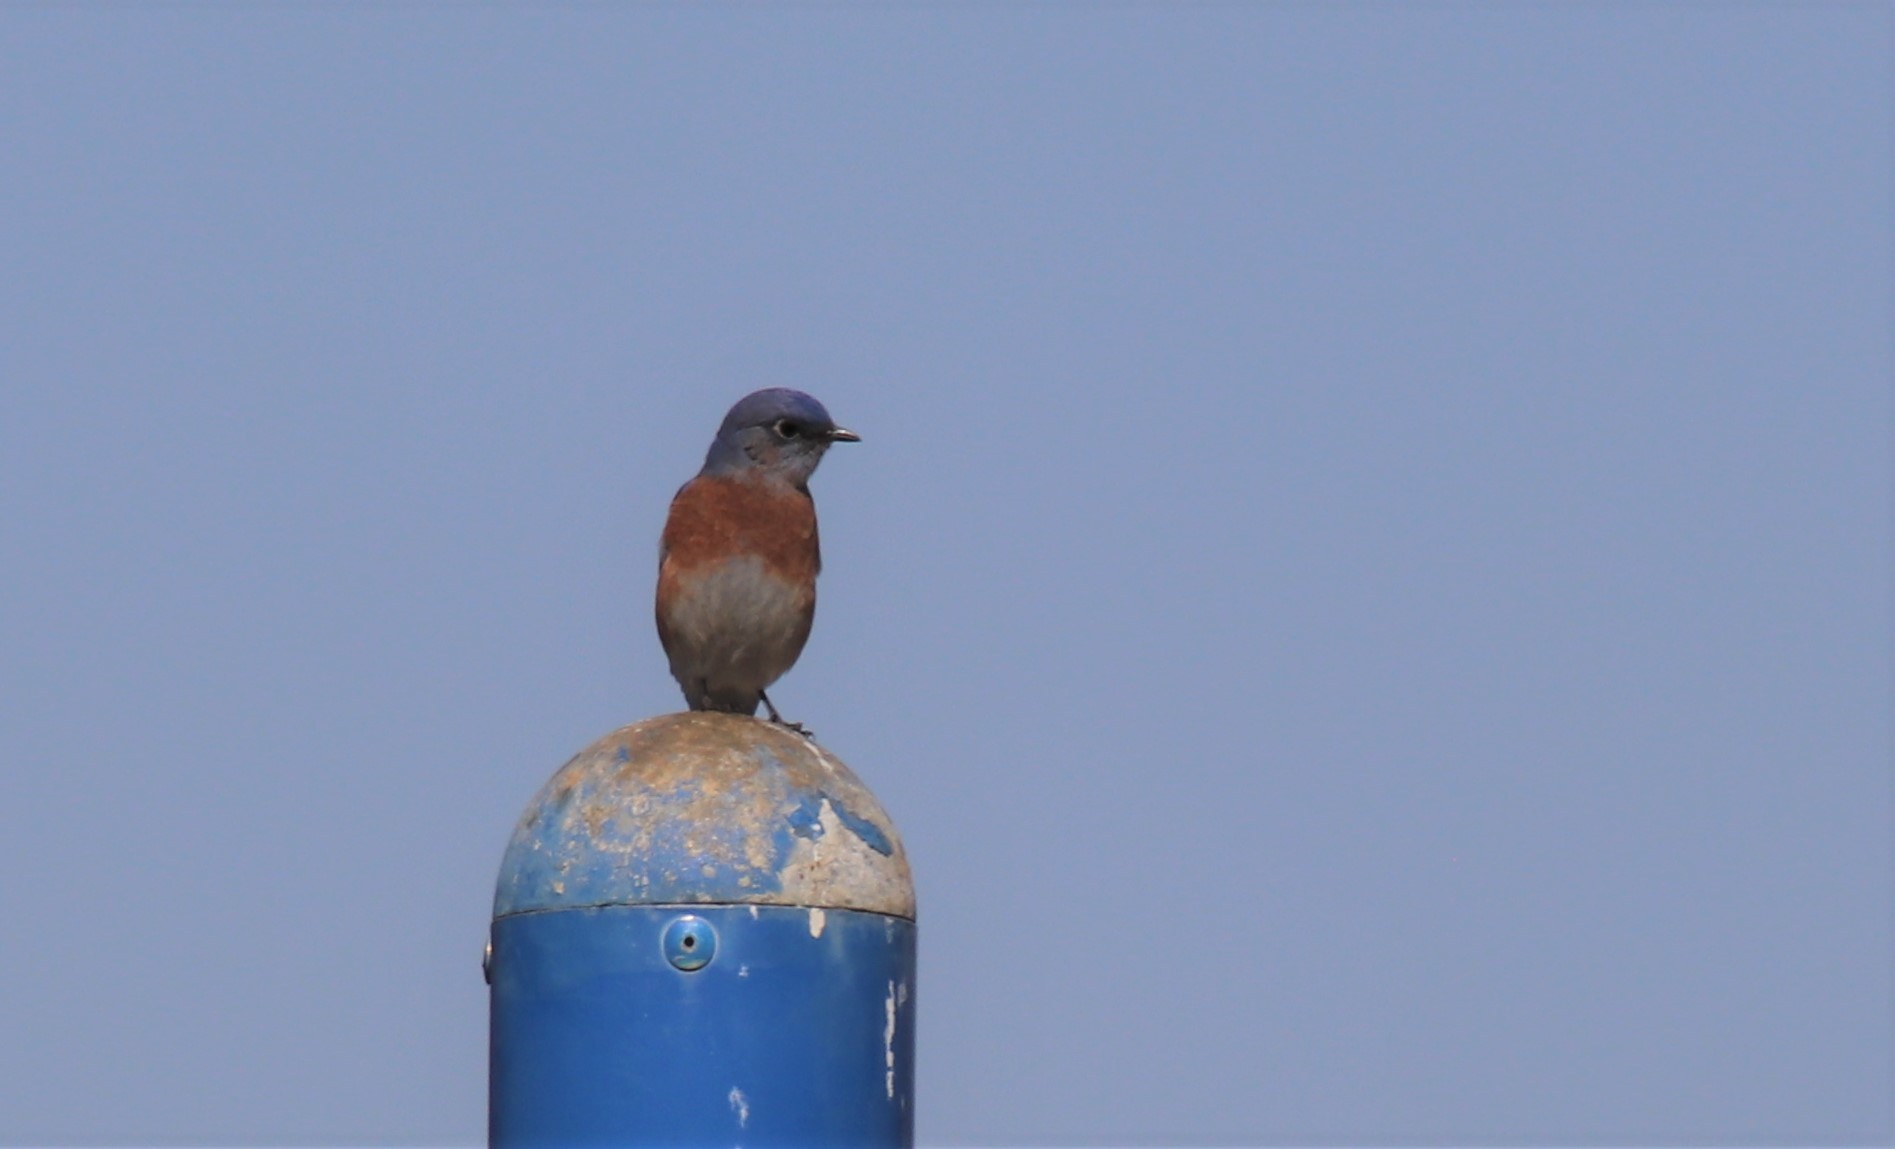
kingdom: Animalia
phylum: Chordata
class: Aves
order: Passeriformes
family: Turdidae
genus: Sialia
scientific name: Sialia mexicana
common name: Western bluebird
